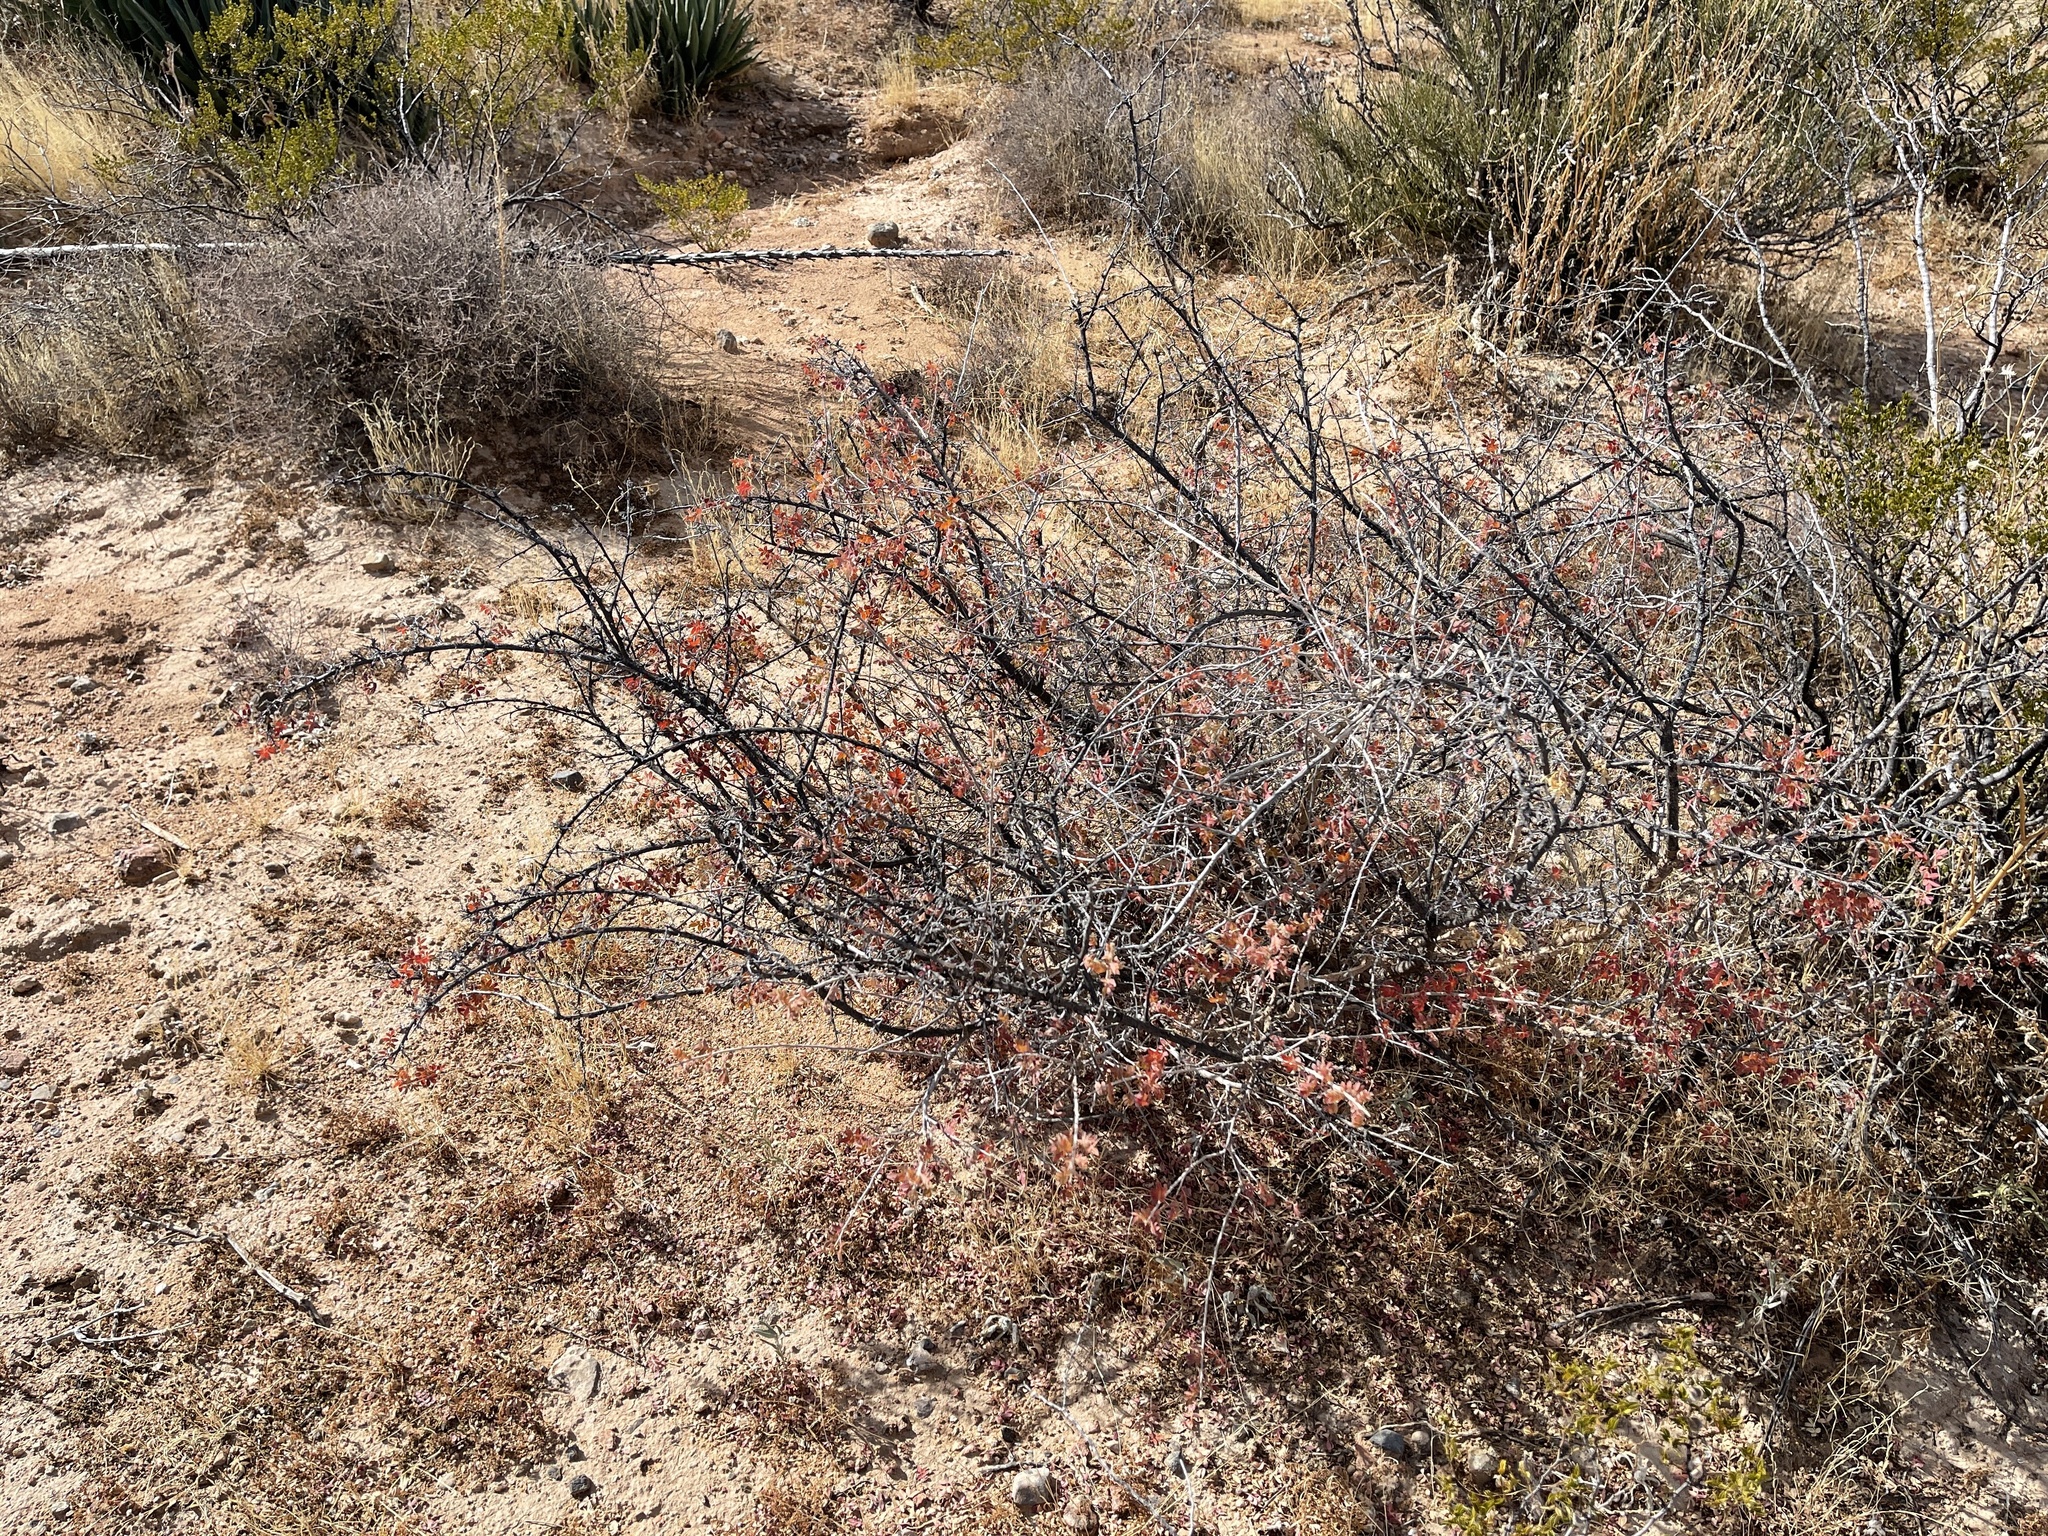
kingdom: Plantae
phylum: Tracheophyta
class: Magnoliopsida
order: Sapindales
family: Anacardiaceae
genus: Rhus
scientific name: Rhus microphylla
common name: Desert sumac
